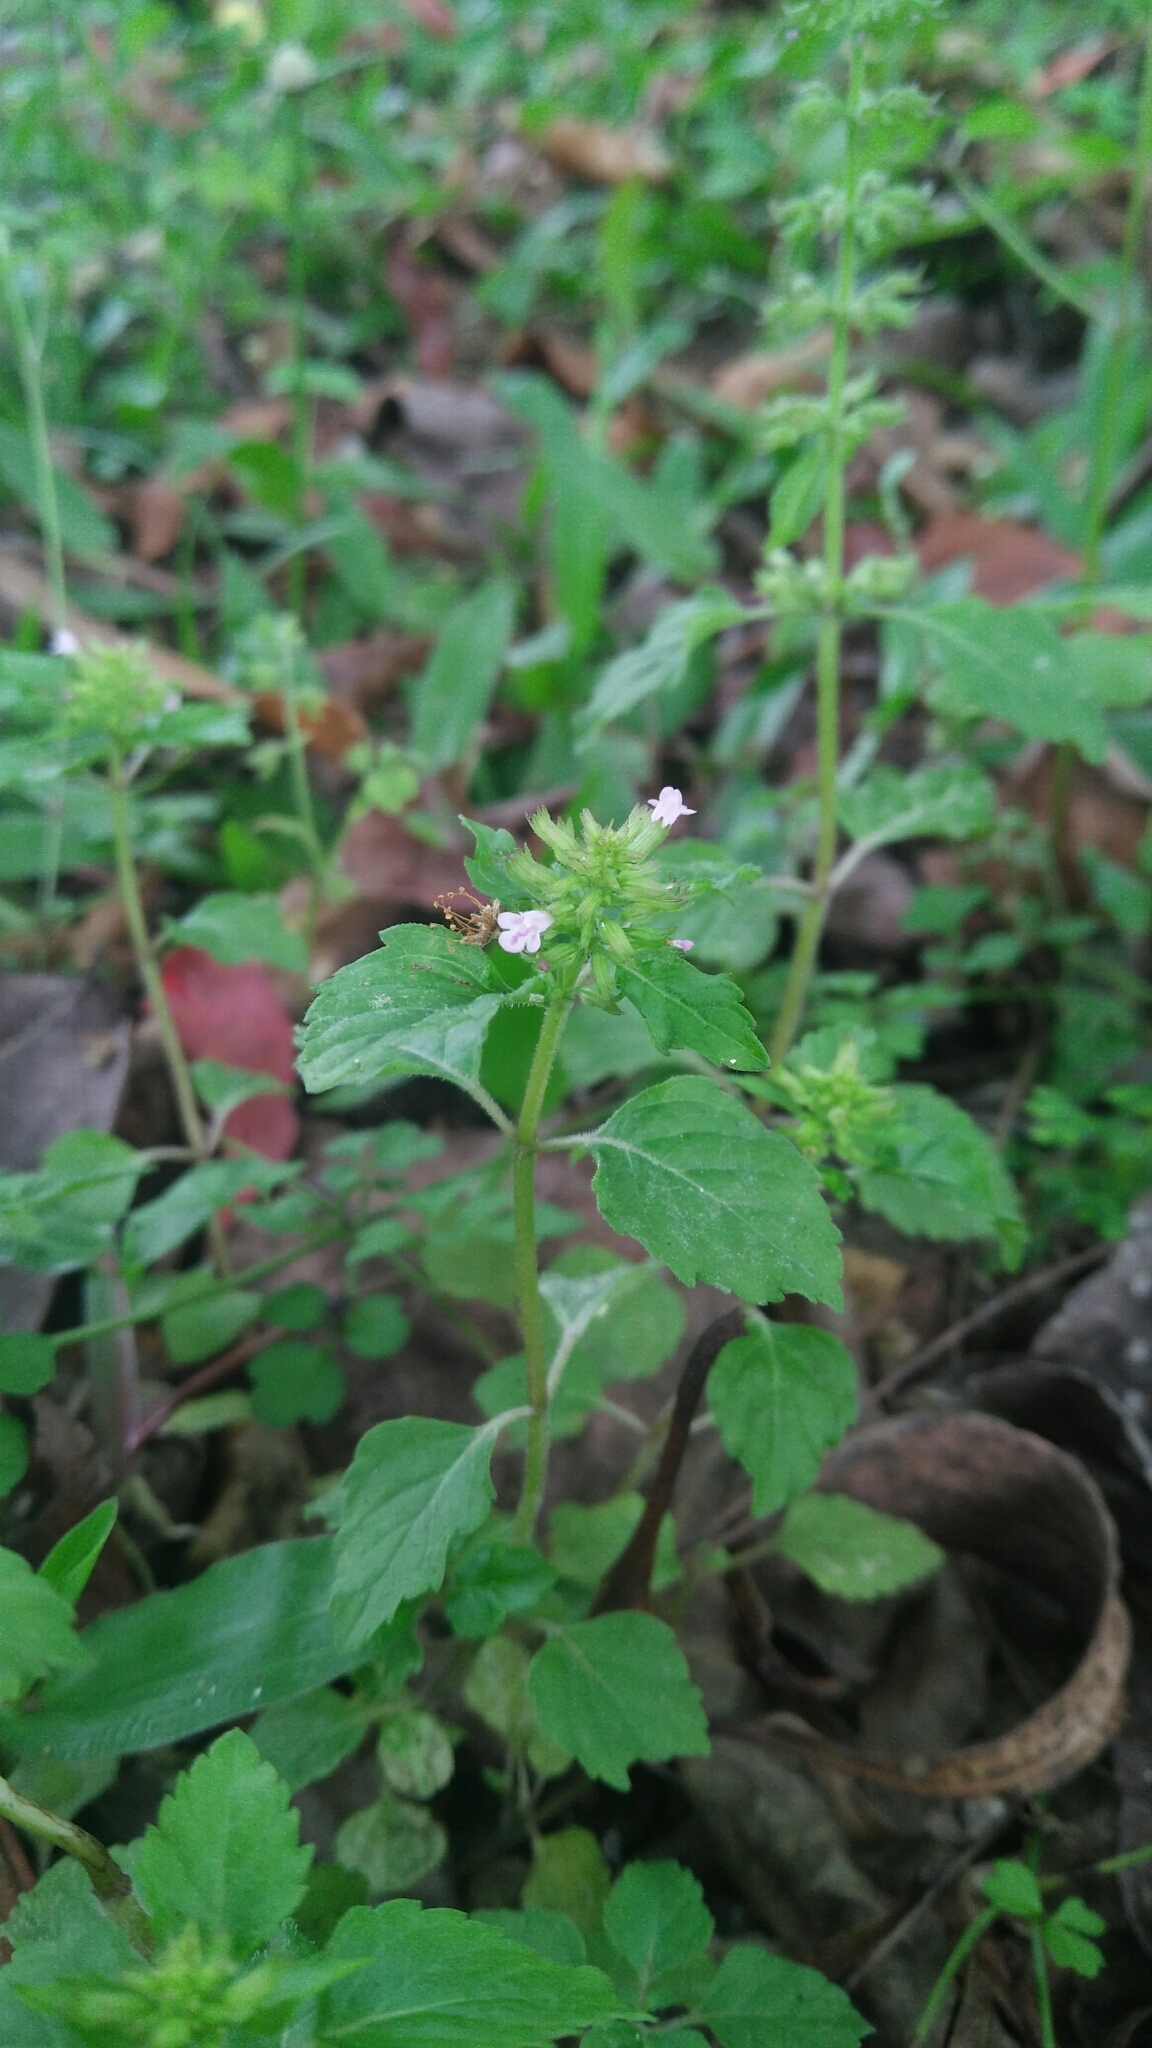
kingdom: Plantae
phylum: Tracheophyta
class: Magnoliopsida
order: Lamiales
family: Lamiaceae
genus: Clinopodium
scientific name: Clinopodium gracile
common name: Slender wild basil
